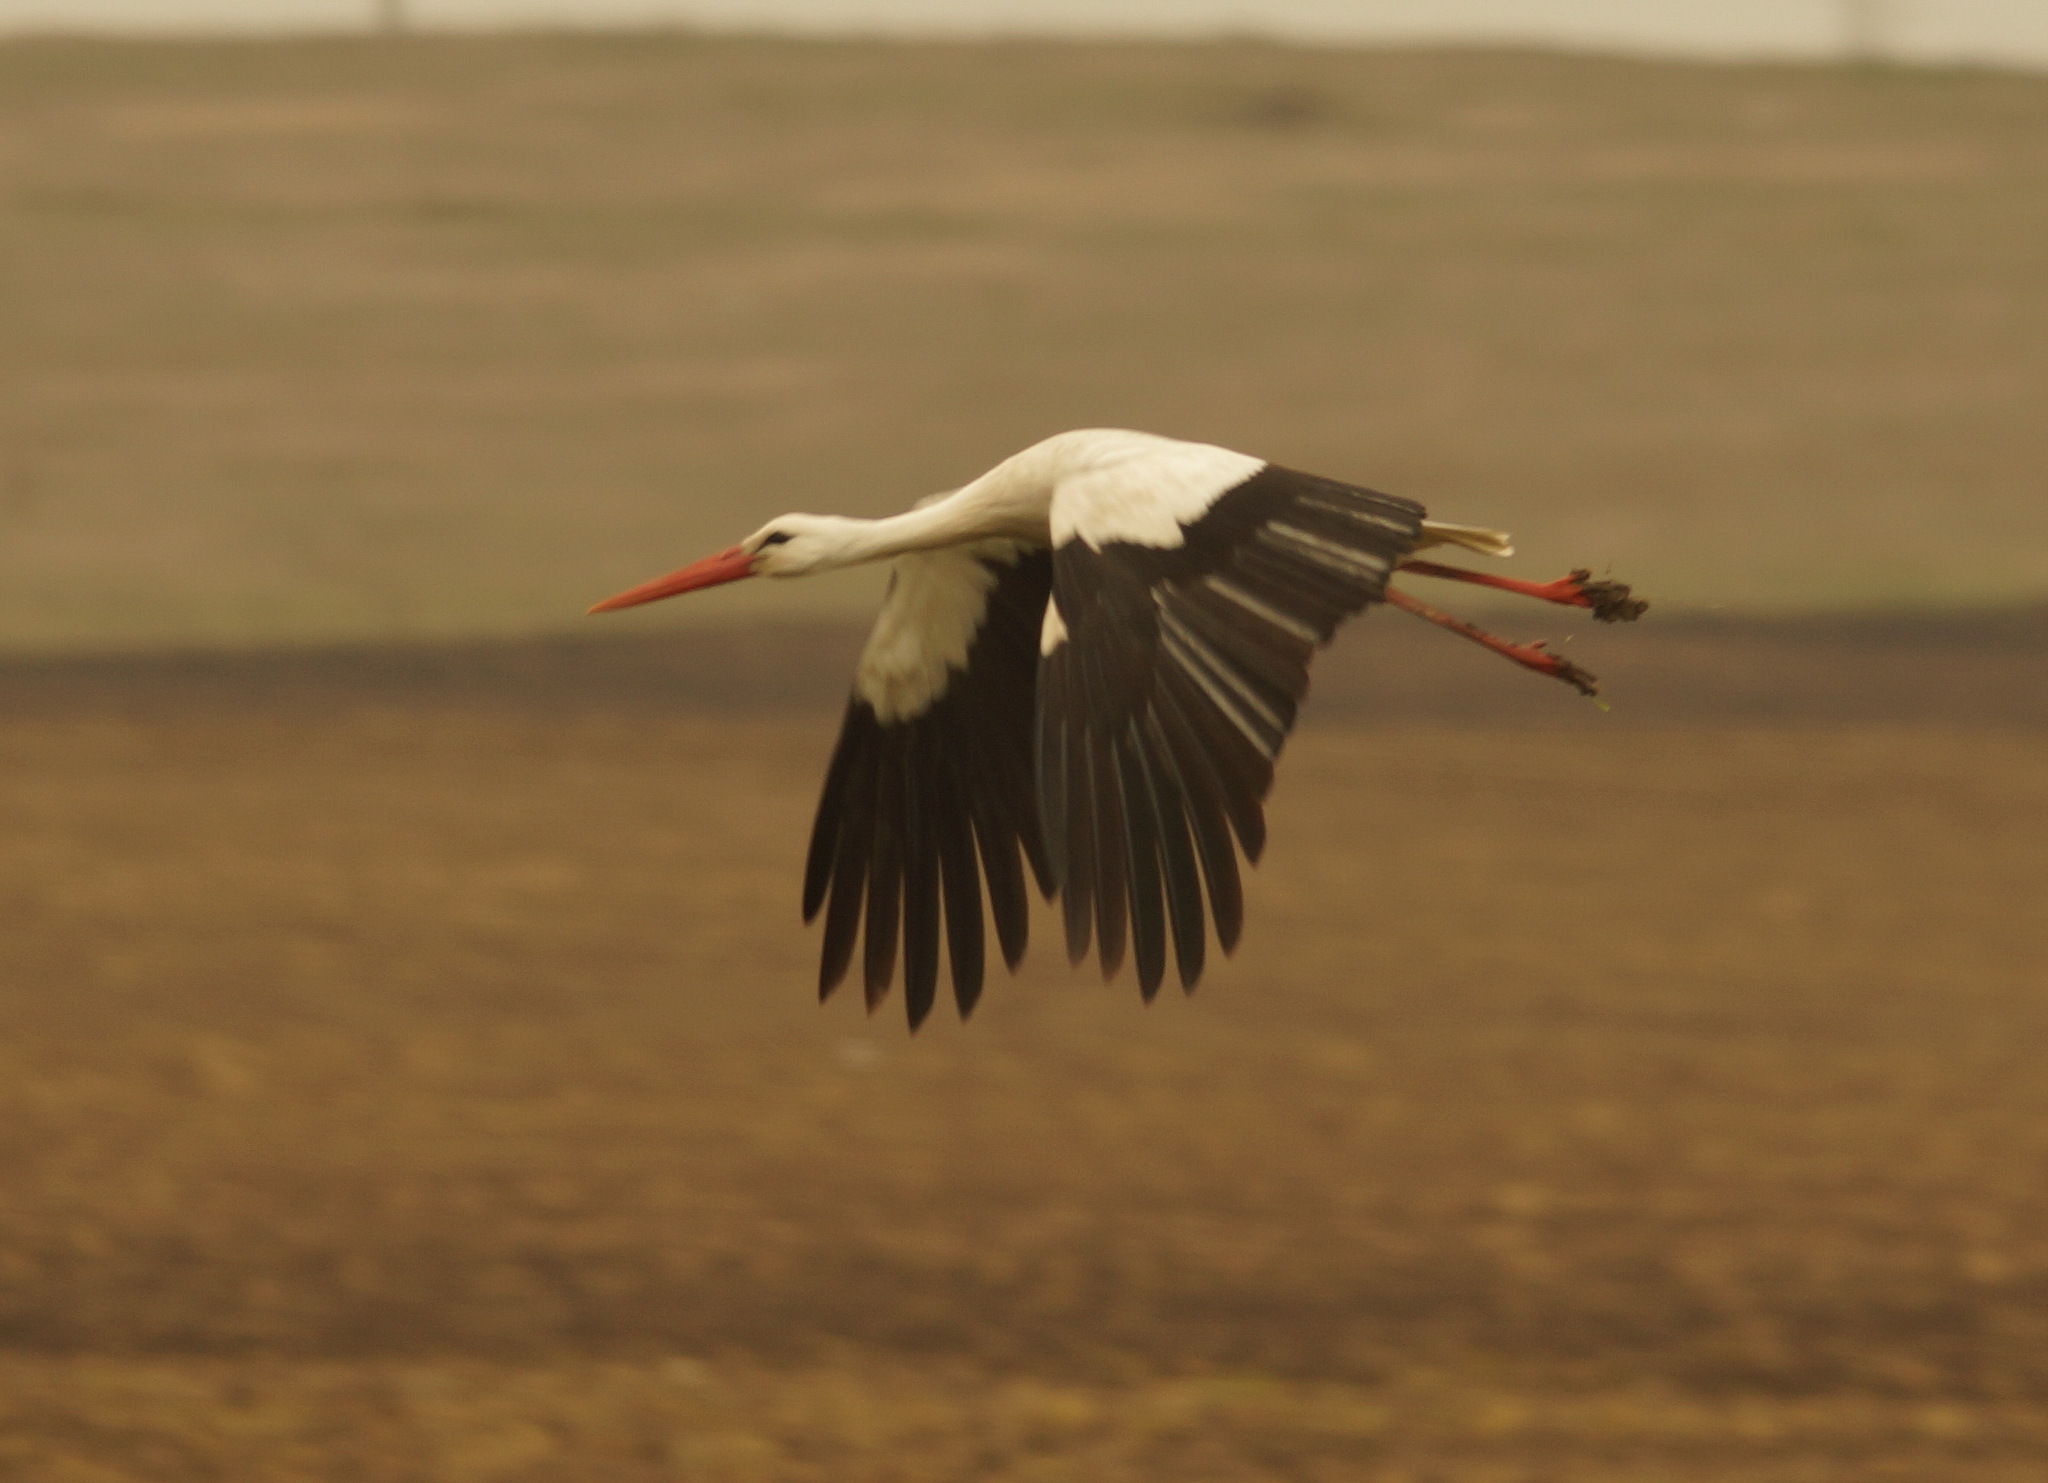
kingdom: Animalia
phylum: Chordata
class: Aves
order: Ciconiiformes
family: Ciconiidae
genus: Ciconia
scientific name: Ciconia ciconia
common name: White stork
